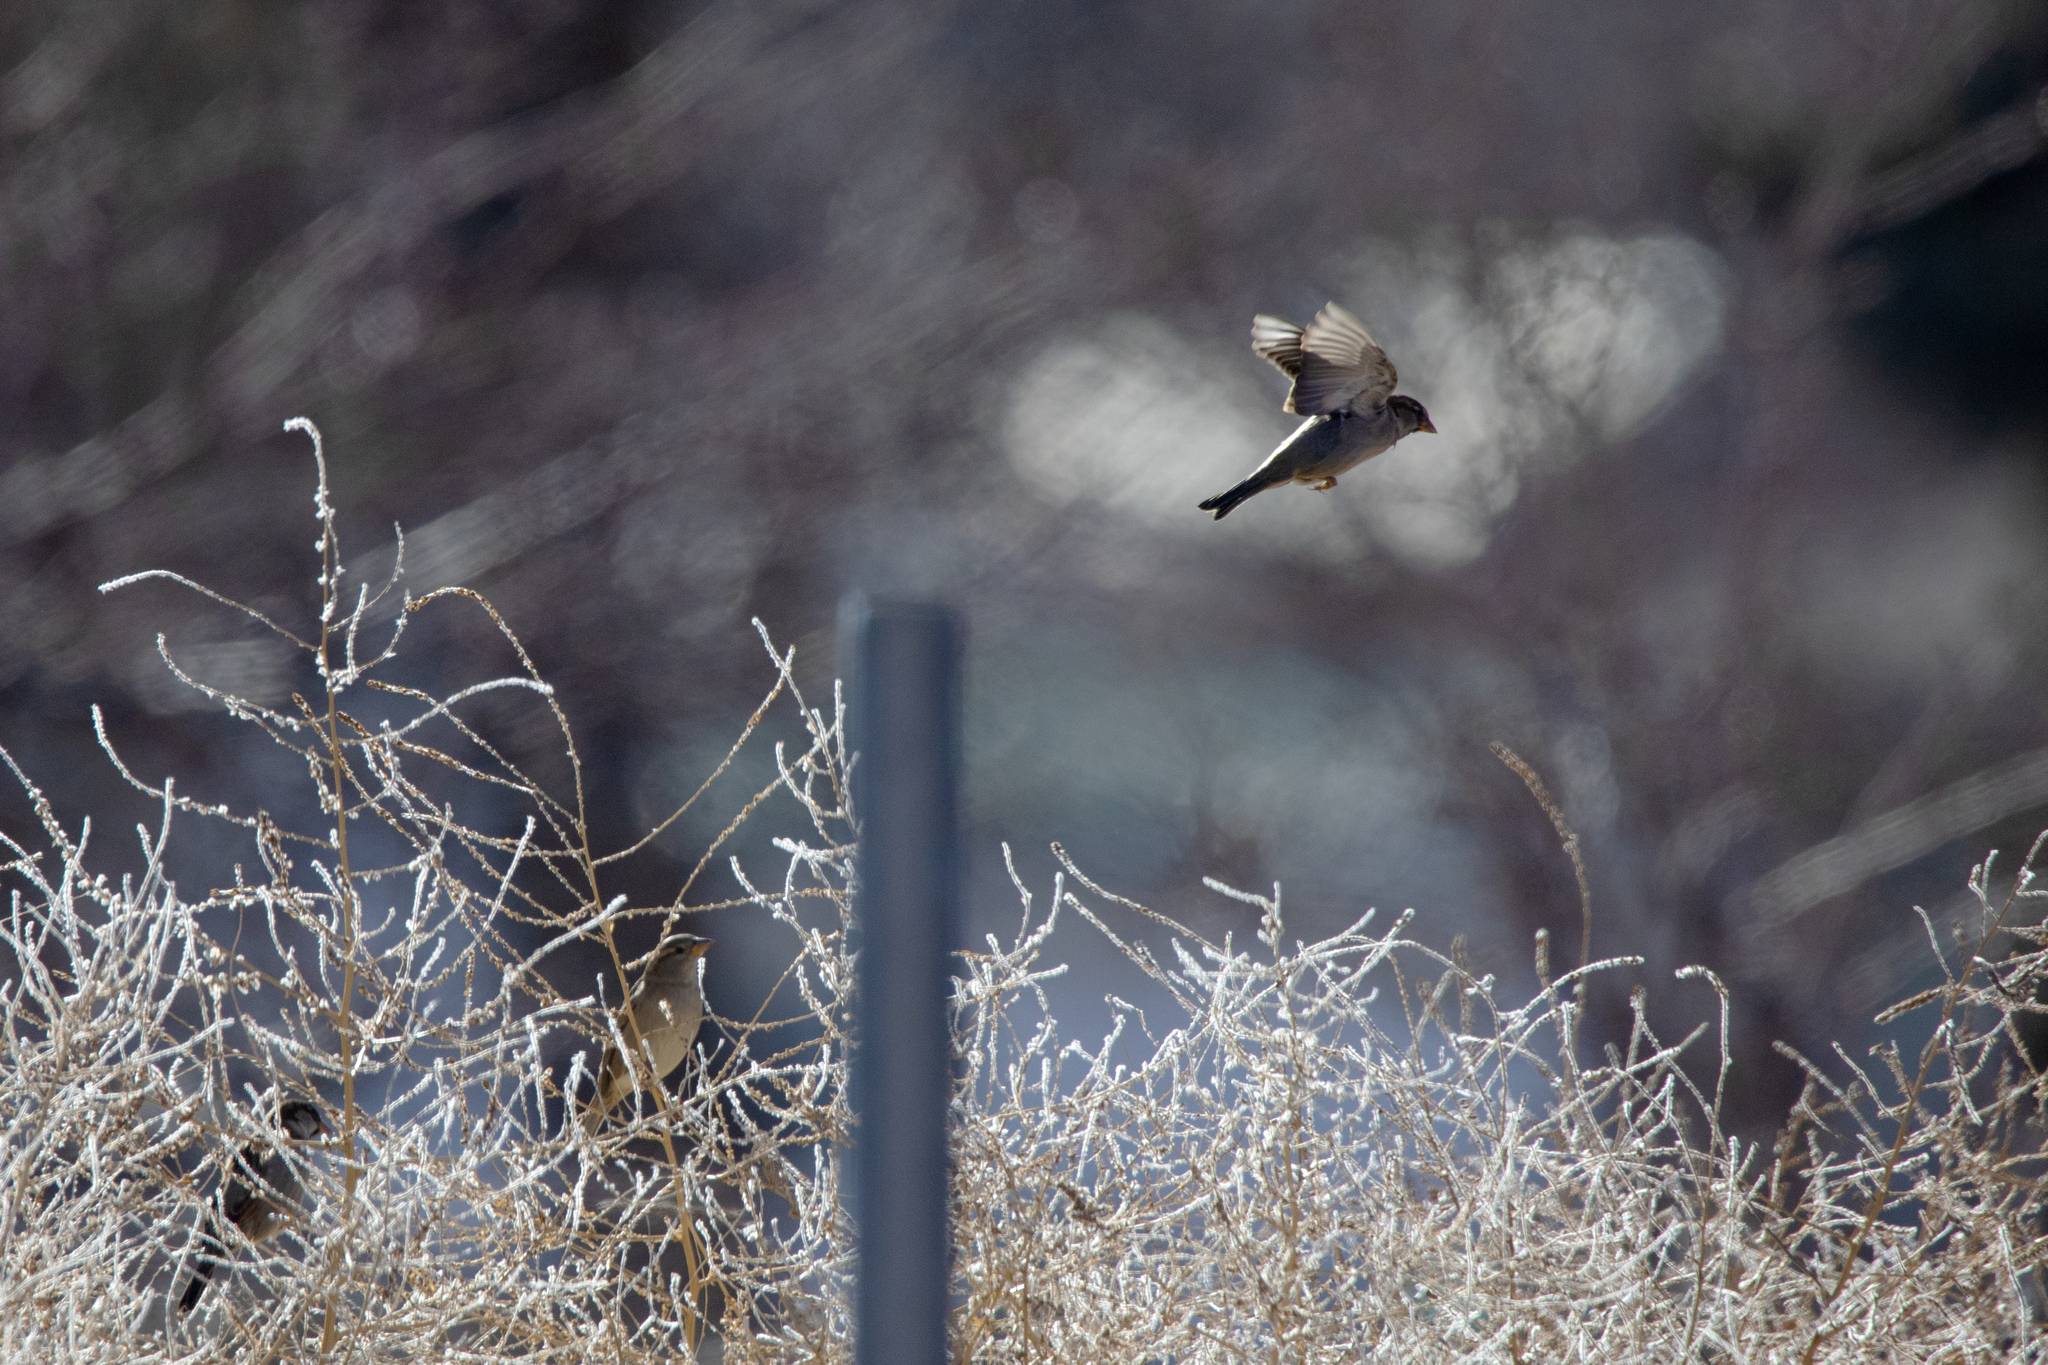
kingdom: Animalia
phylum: Chordata
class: Aves
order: Passeriformes
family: Passeridae
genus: Passer
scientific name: Passer domesticus
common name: House sparrow
